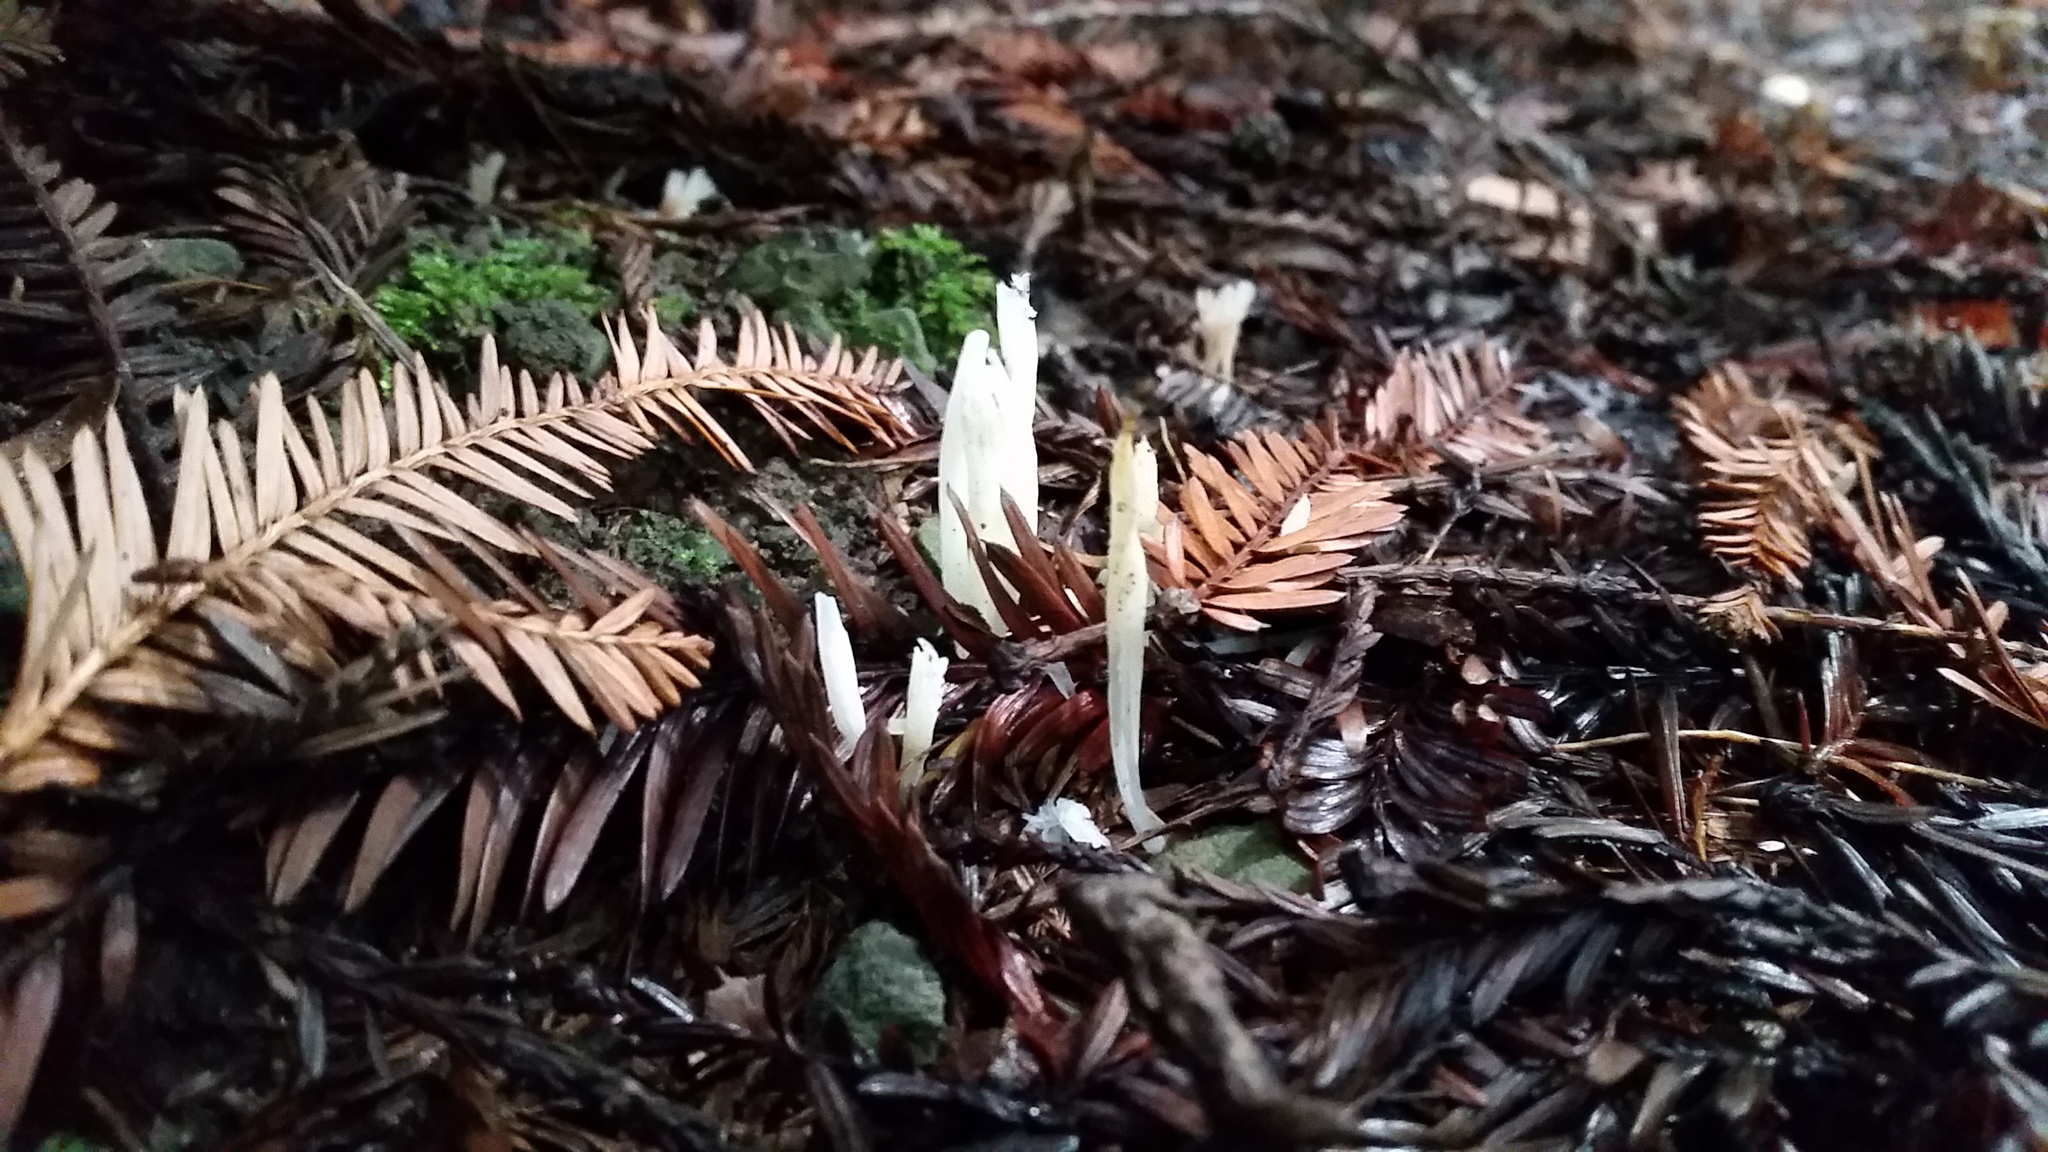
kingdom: Fungi
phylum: Basidiomycota
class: Agaricomycetes
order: Agaricales
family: Clavariaceae
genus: Clavaria
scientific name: Clavaria fragilis
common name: White spindles
